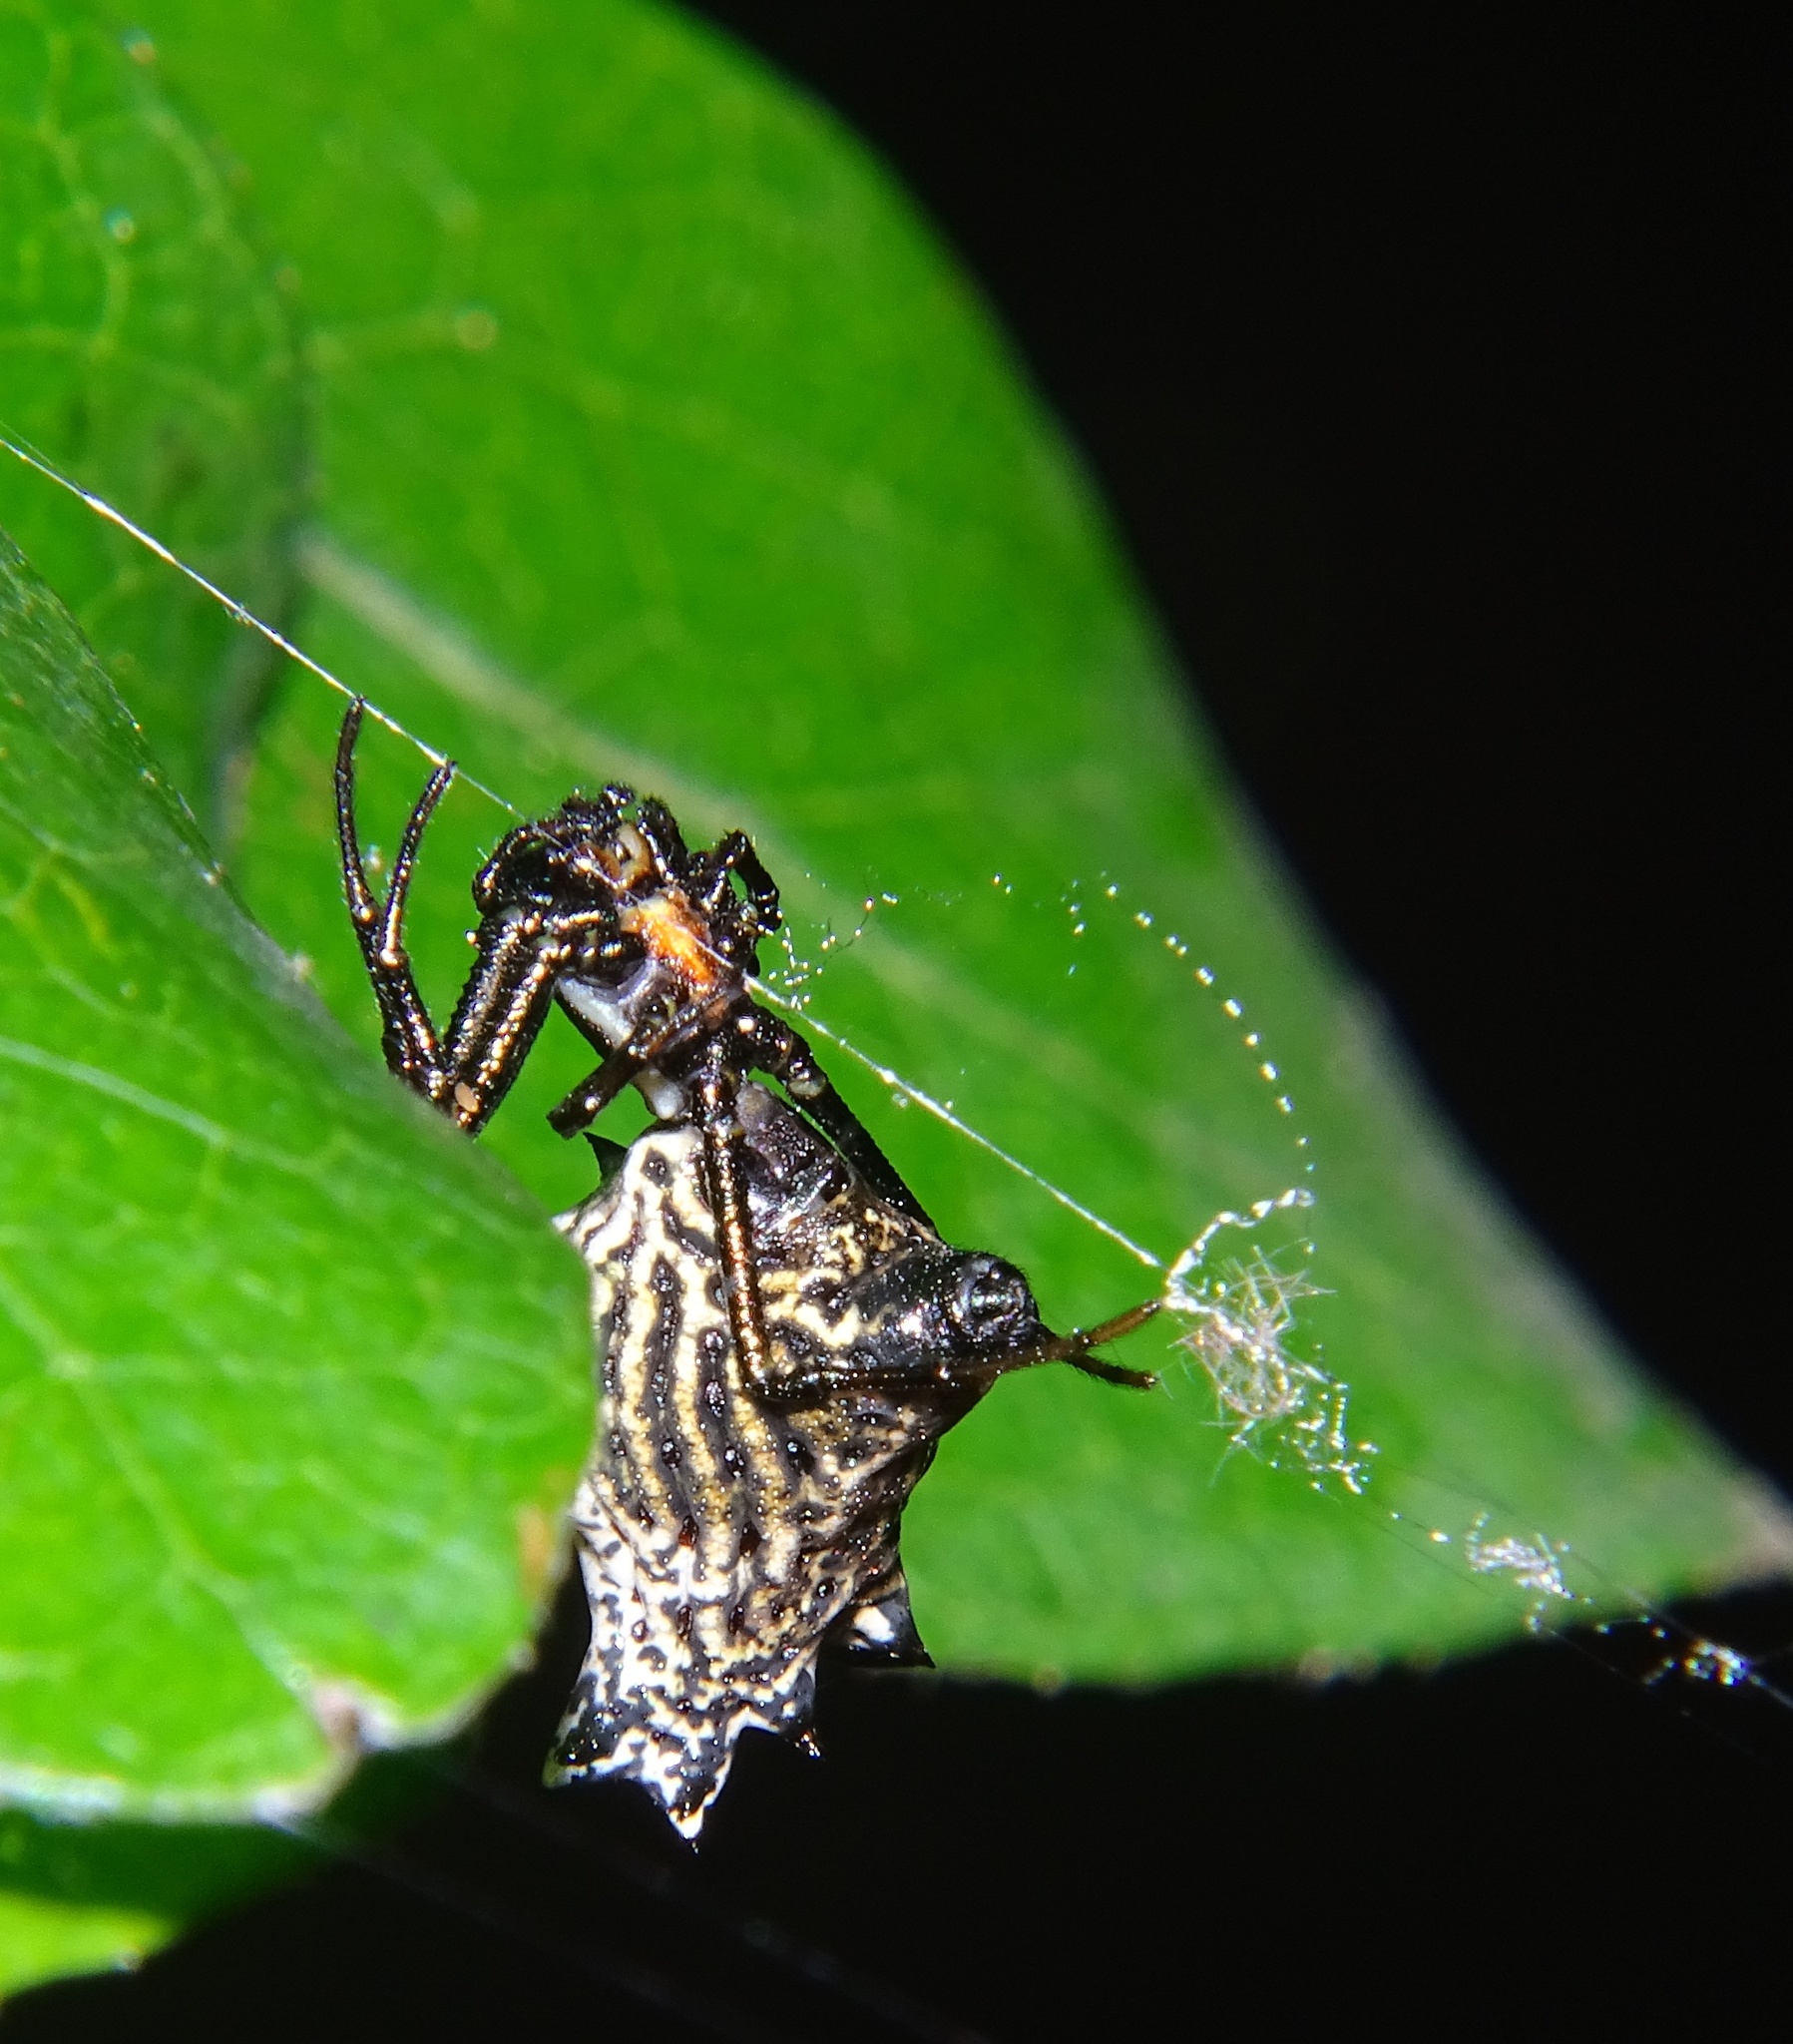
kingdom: Animalia
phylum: Arthropoda
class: Arachnida
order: Araneae
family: Araneidae
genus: Micrathena
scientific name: Micrathena gracilis
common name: Orb weavers
